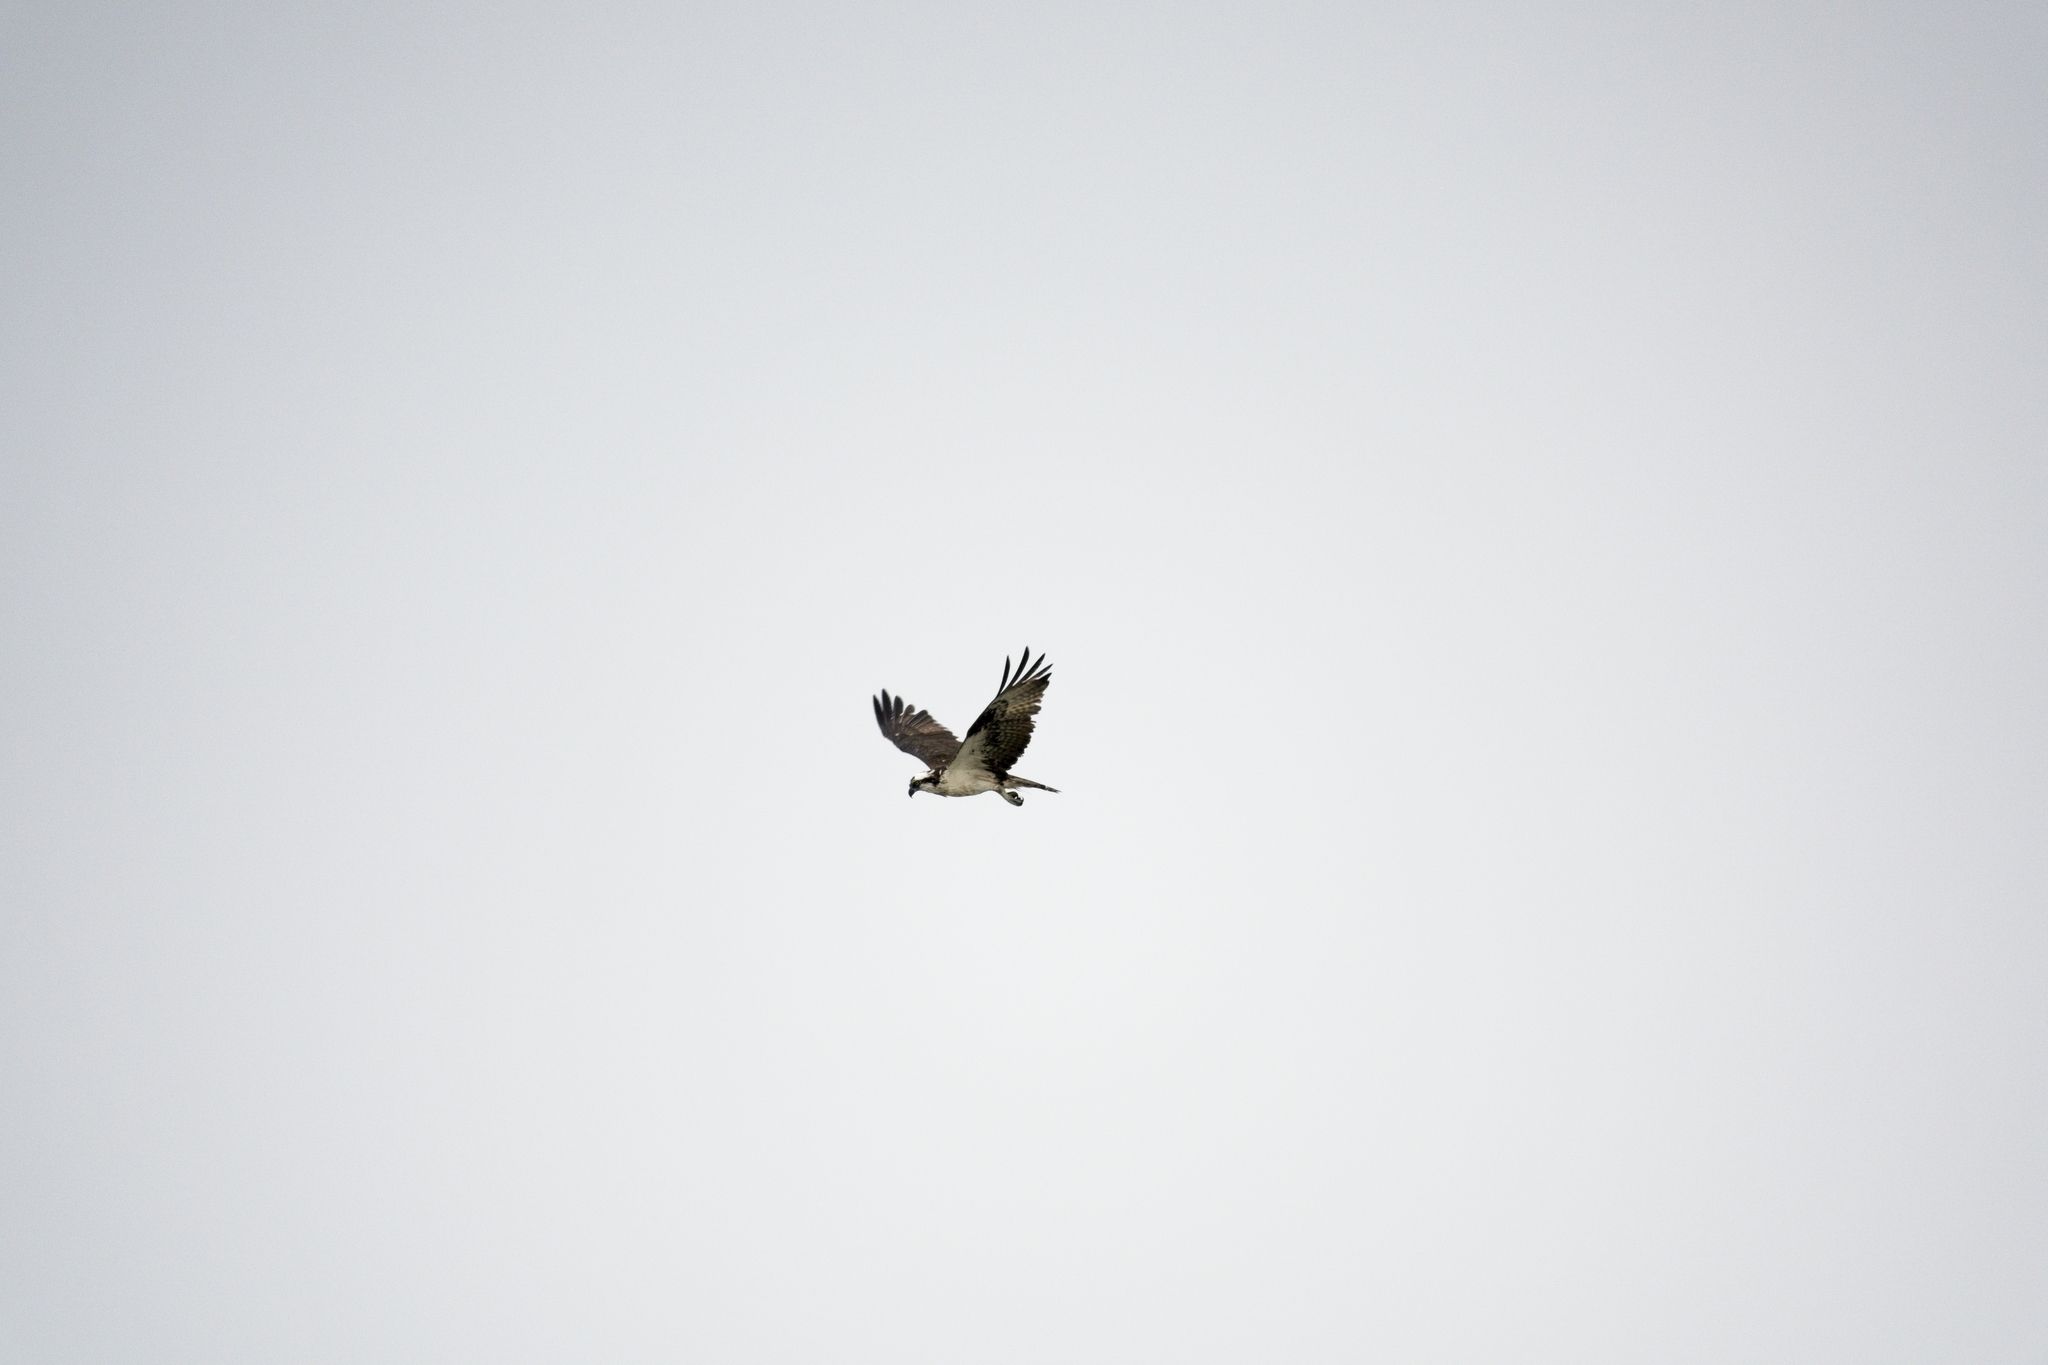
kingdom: Animalia
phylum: Chordata
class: Aves
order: Accipitriformes
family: Pandionidae
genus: Pandion
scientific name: Pandion haliaetus
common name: Osprey
